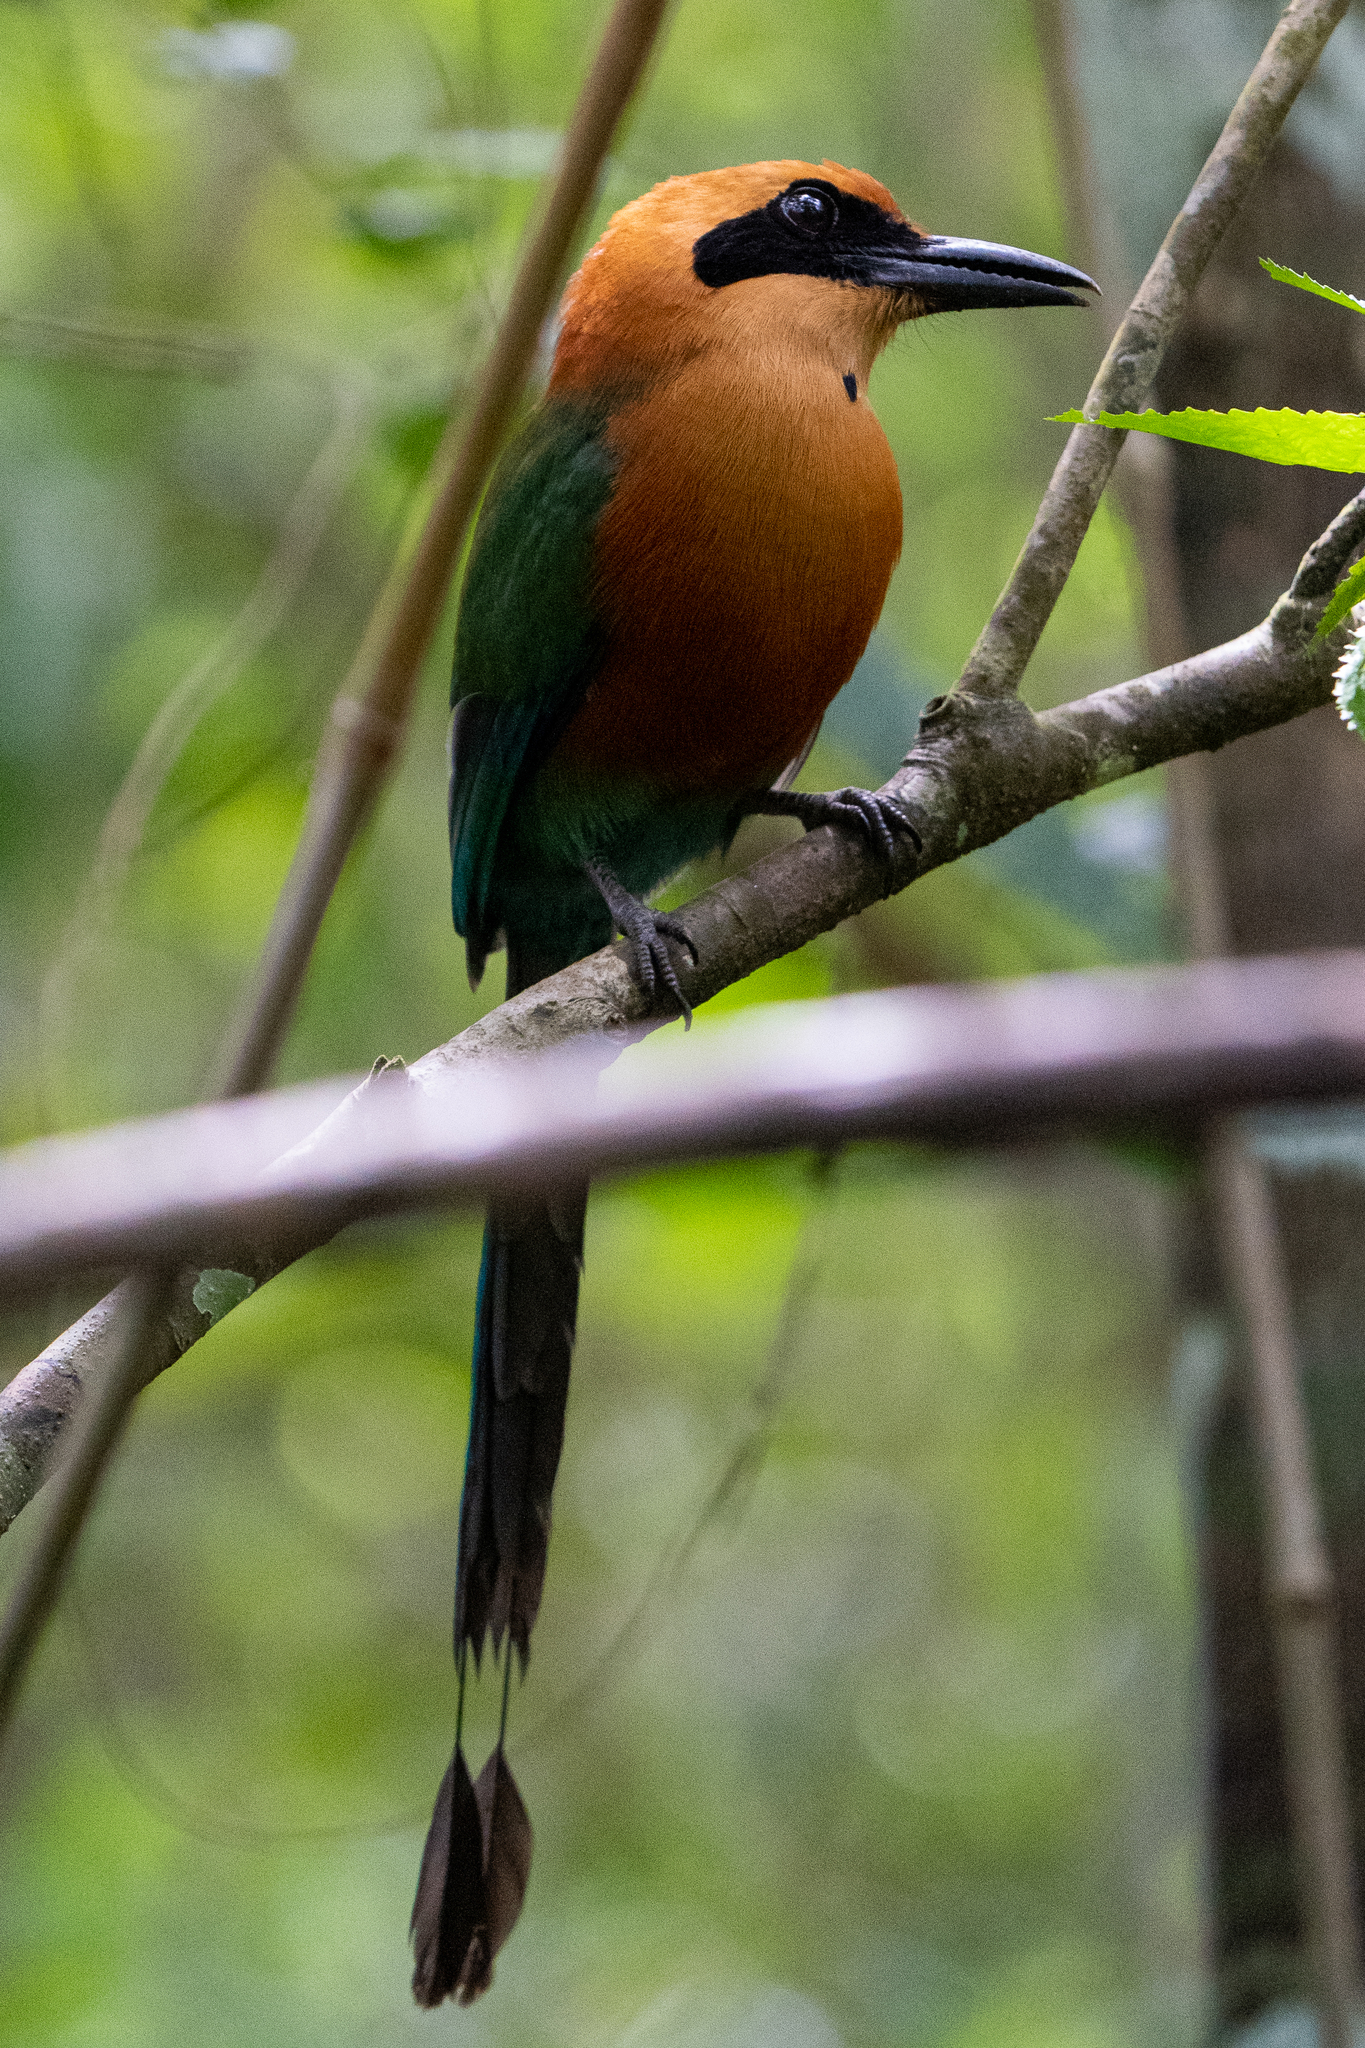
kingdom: Animalia
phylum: Chordata
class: Aves
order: Coraciiformes
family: Momotidae
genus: Baryphthengus
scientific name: Baryphthengus martii
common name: Rufous motmot
